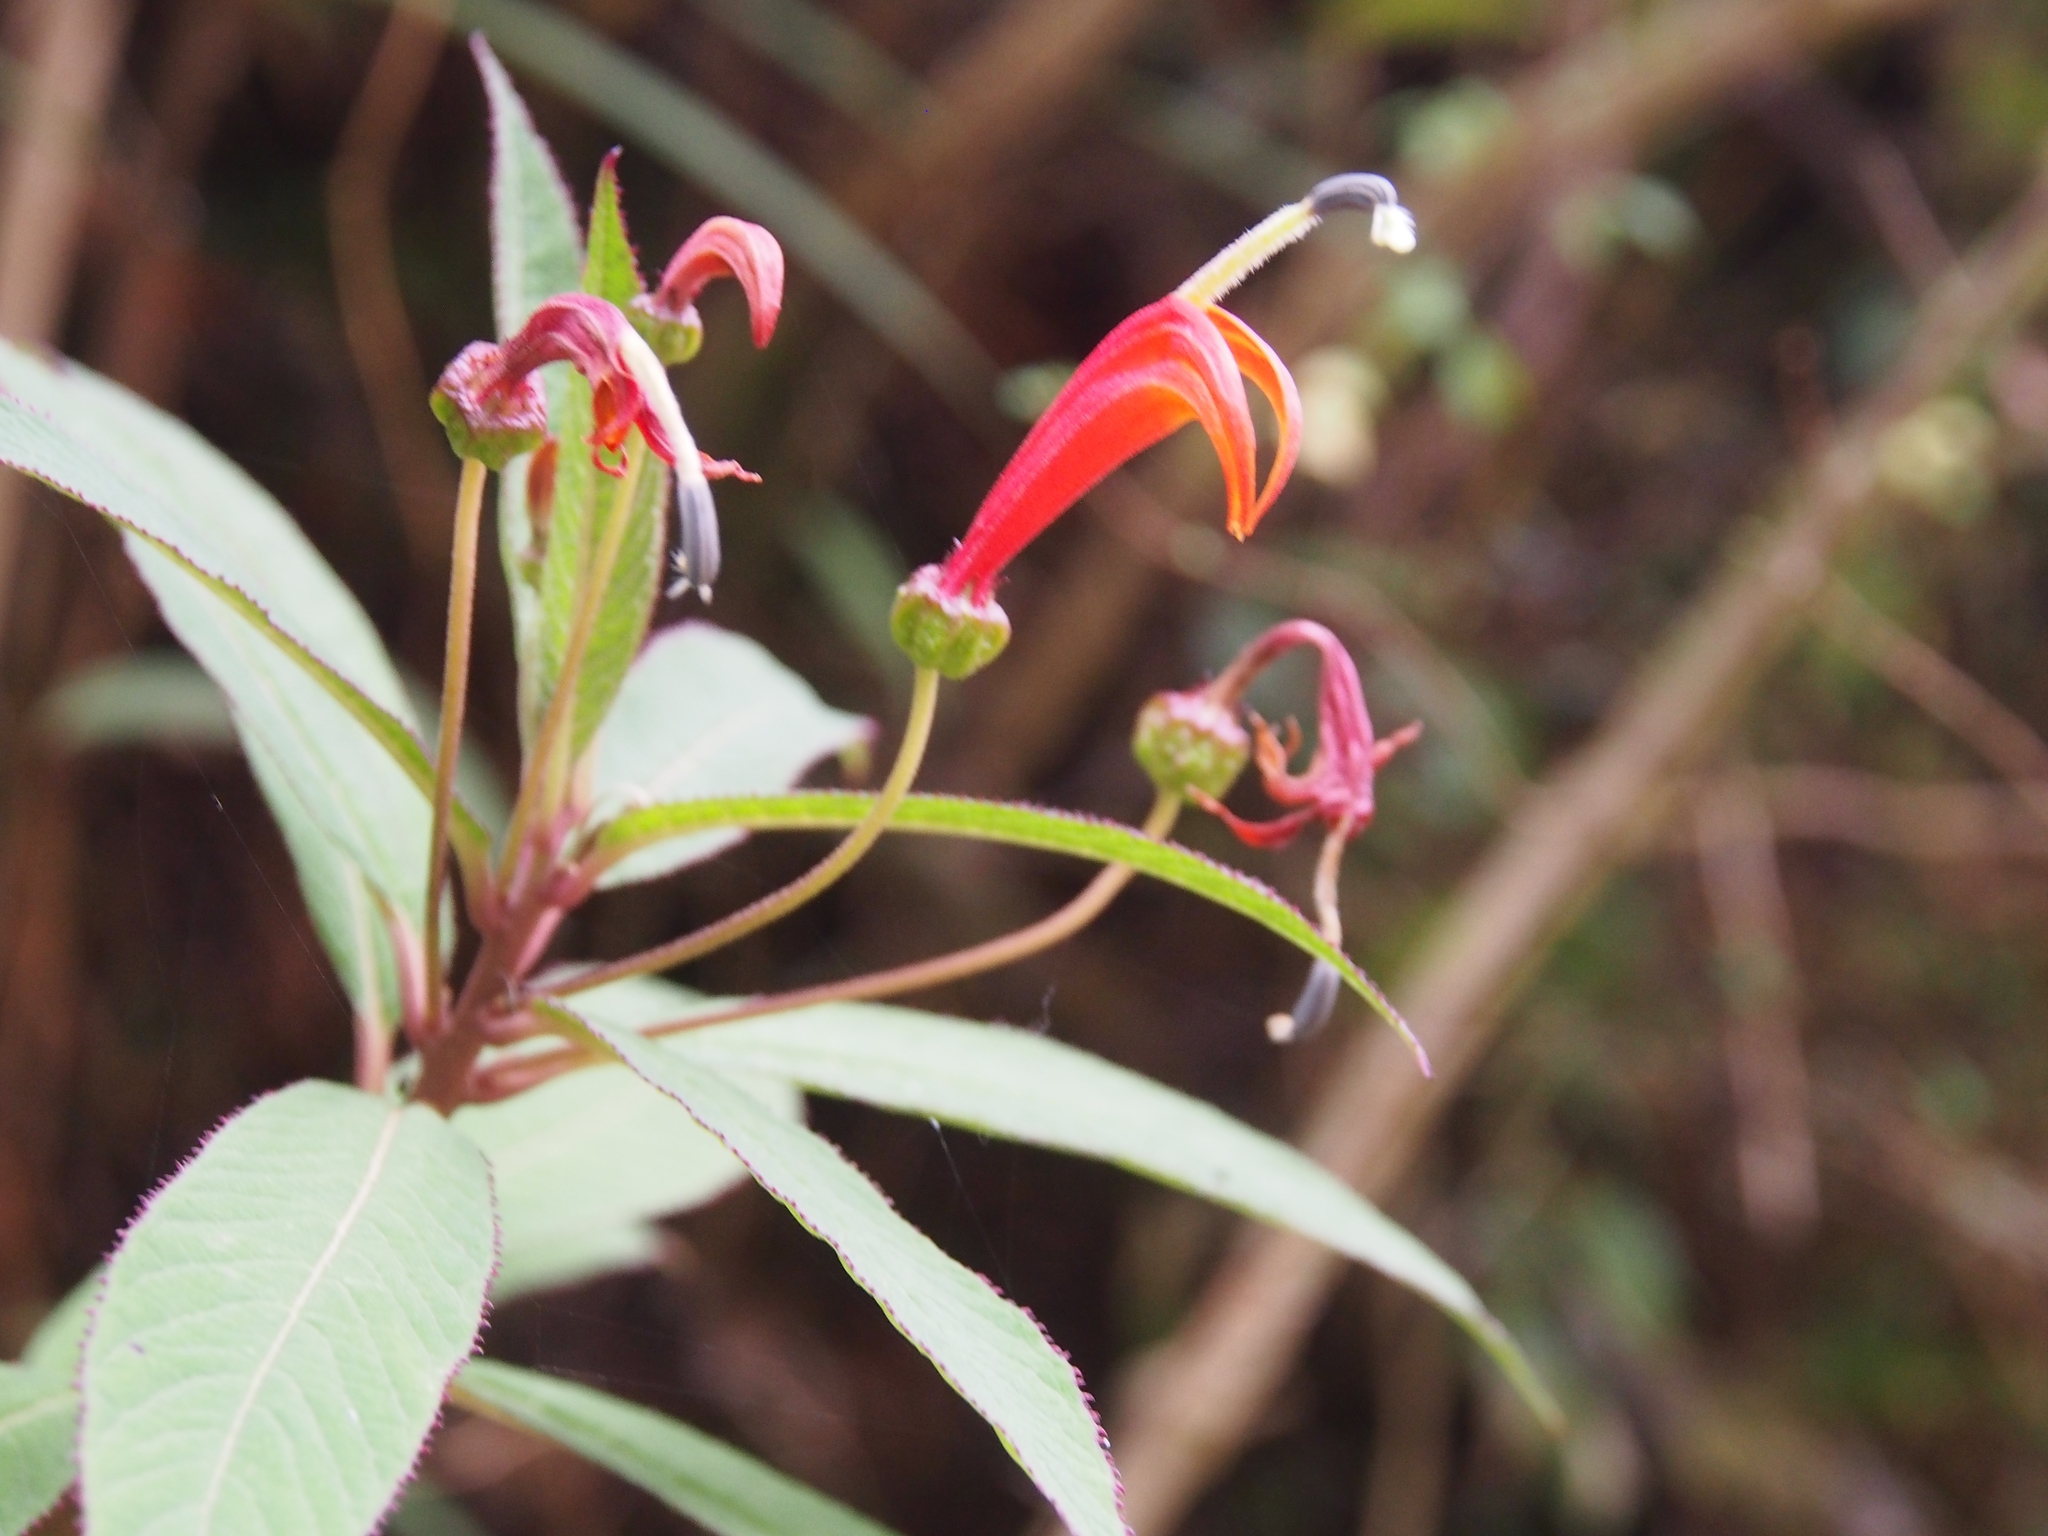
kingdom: Plantae
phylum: Tracheophyta
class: Magnoliopsida
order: Asterales
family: Campanulaceae
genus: Centropogon
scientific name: Centropogon valerii
